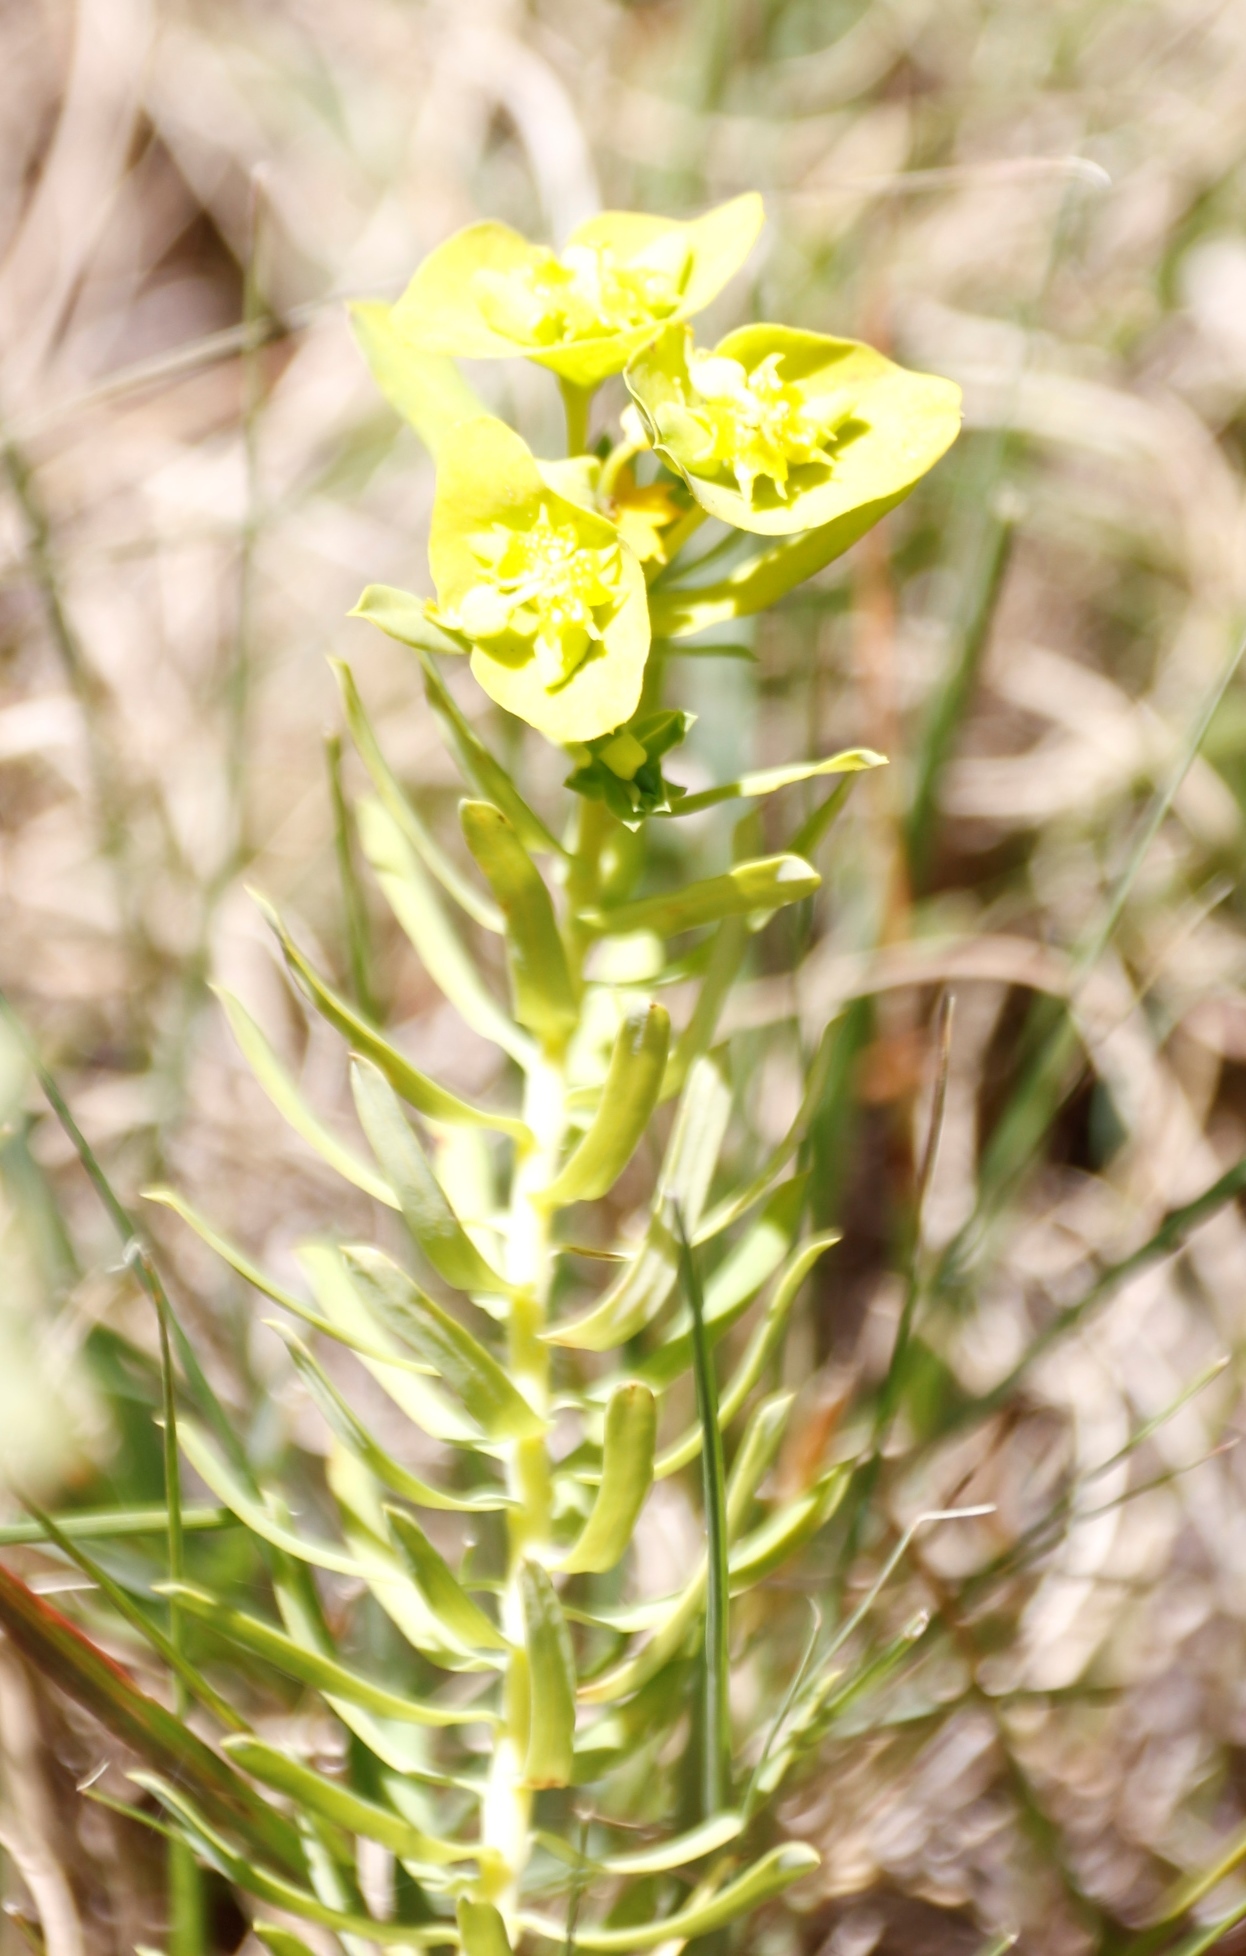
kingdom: Plantae
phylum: Tracheophyta
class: Magnoliopsida
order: Malpighiales
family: Euphorbiaceae
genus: Euphorbia
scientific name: Euphorbia natalensis
